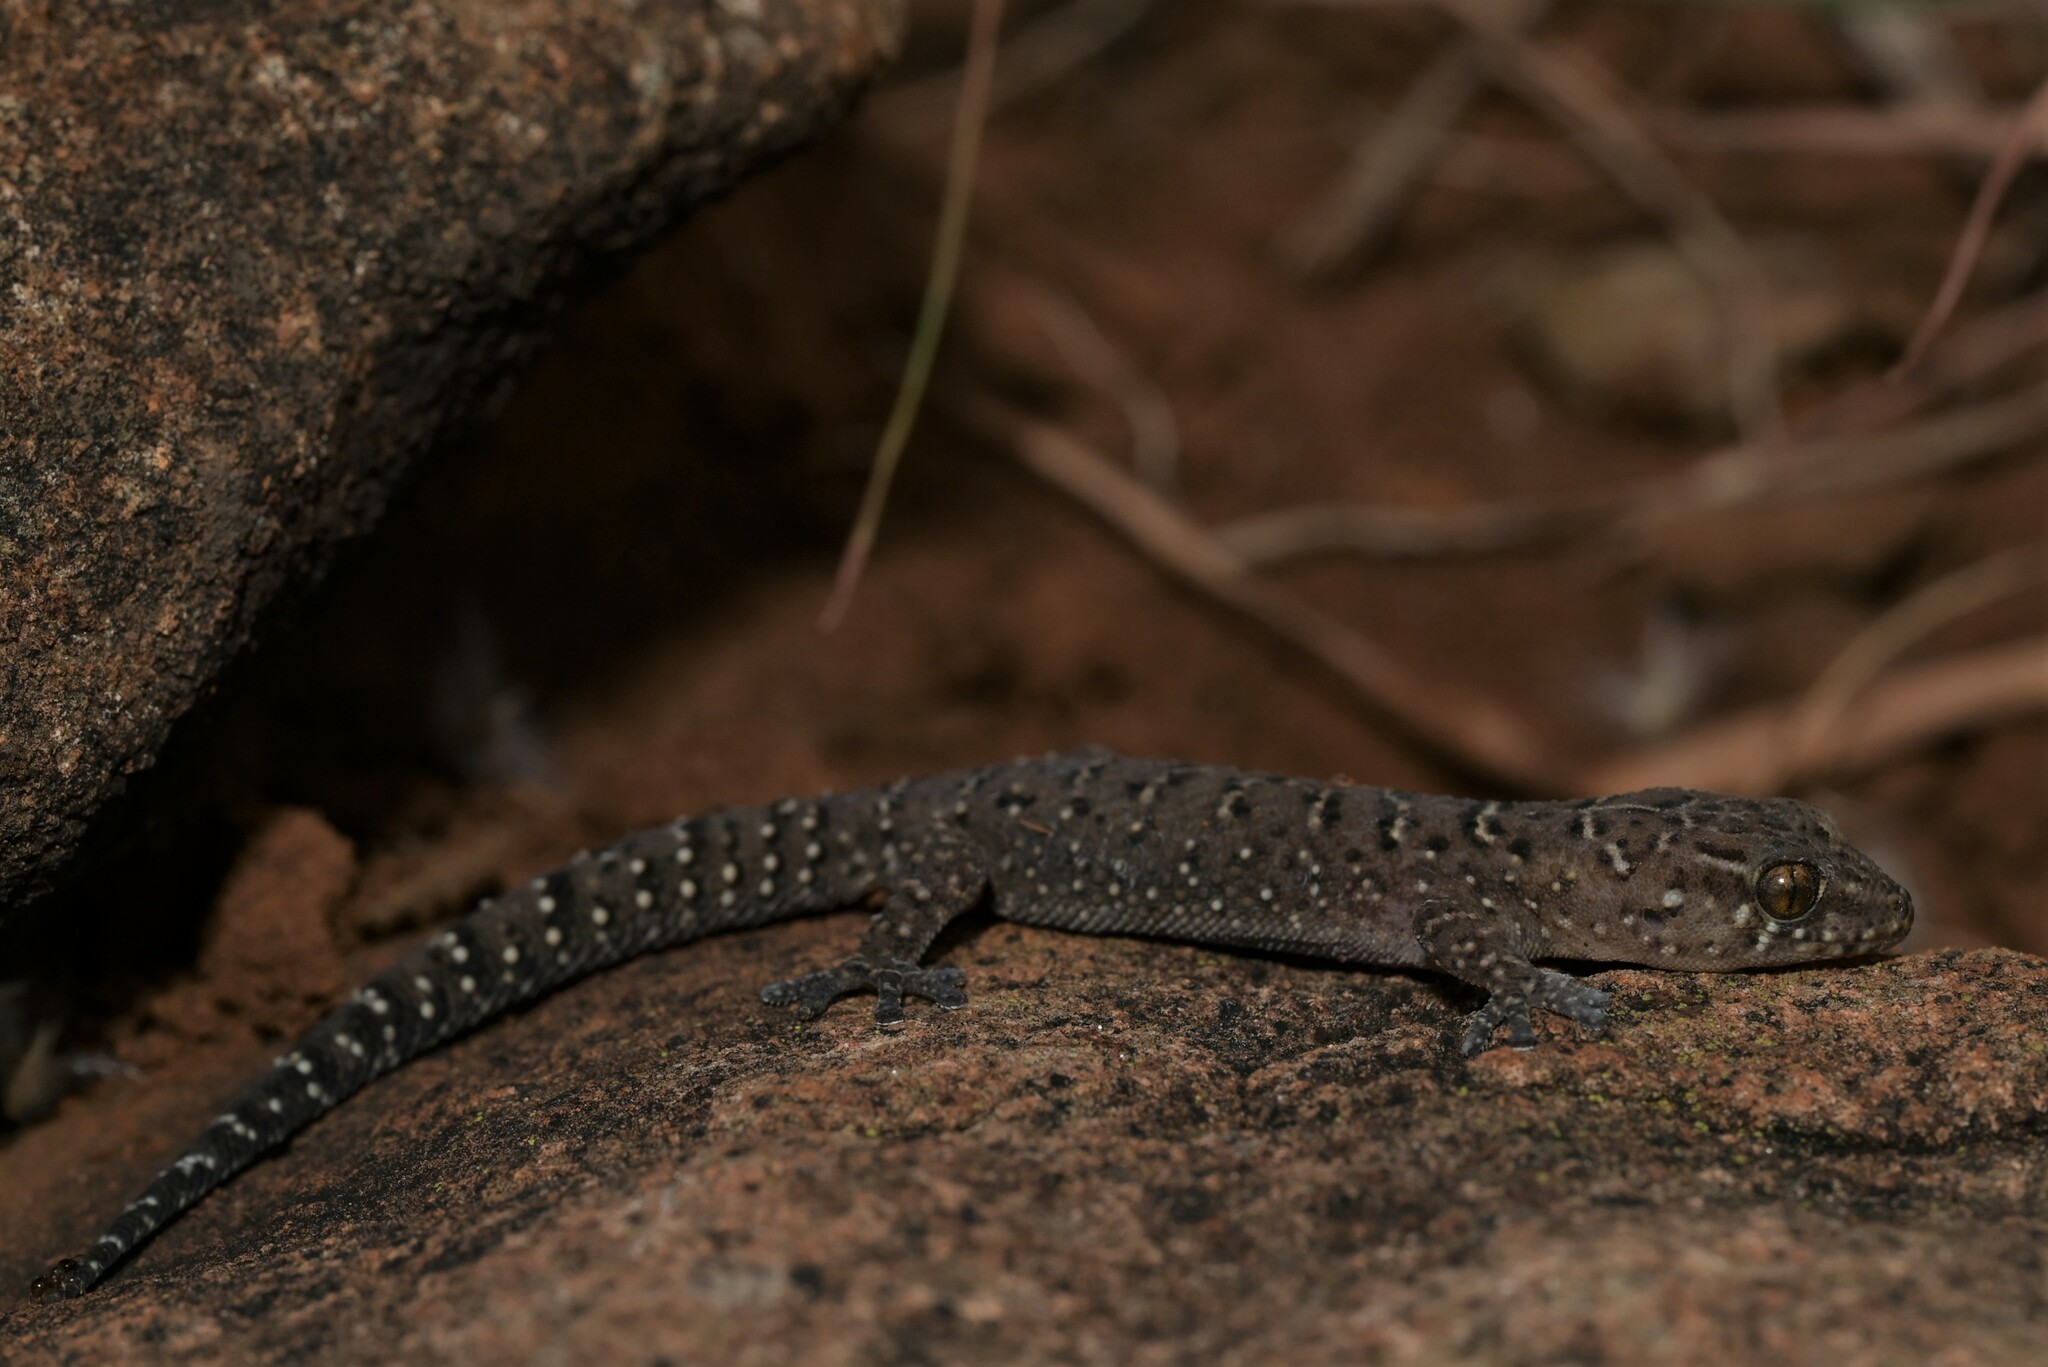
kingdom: Animalia
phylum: Chordata
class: Squamata
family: Gekkonidae
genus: Pachydactylus
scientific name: Pachydactylus vansoni
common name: Van son's gecko
